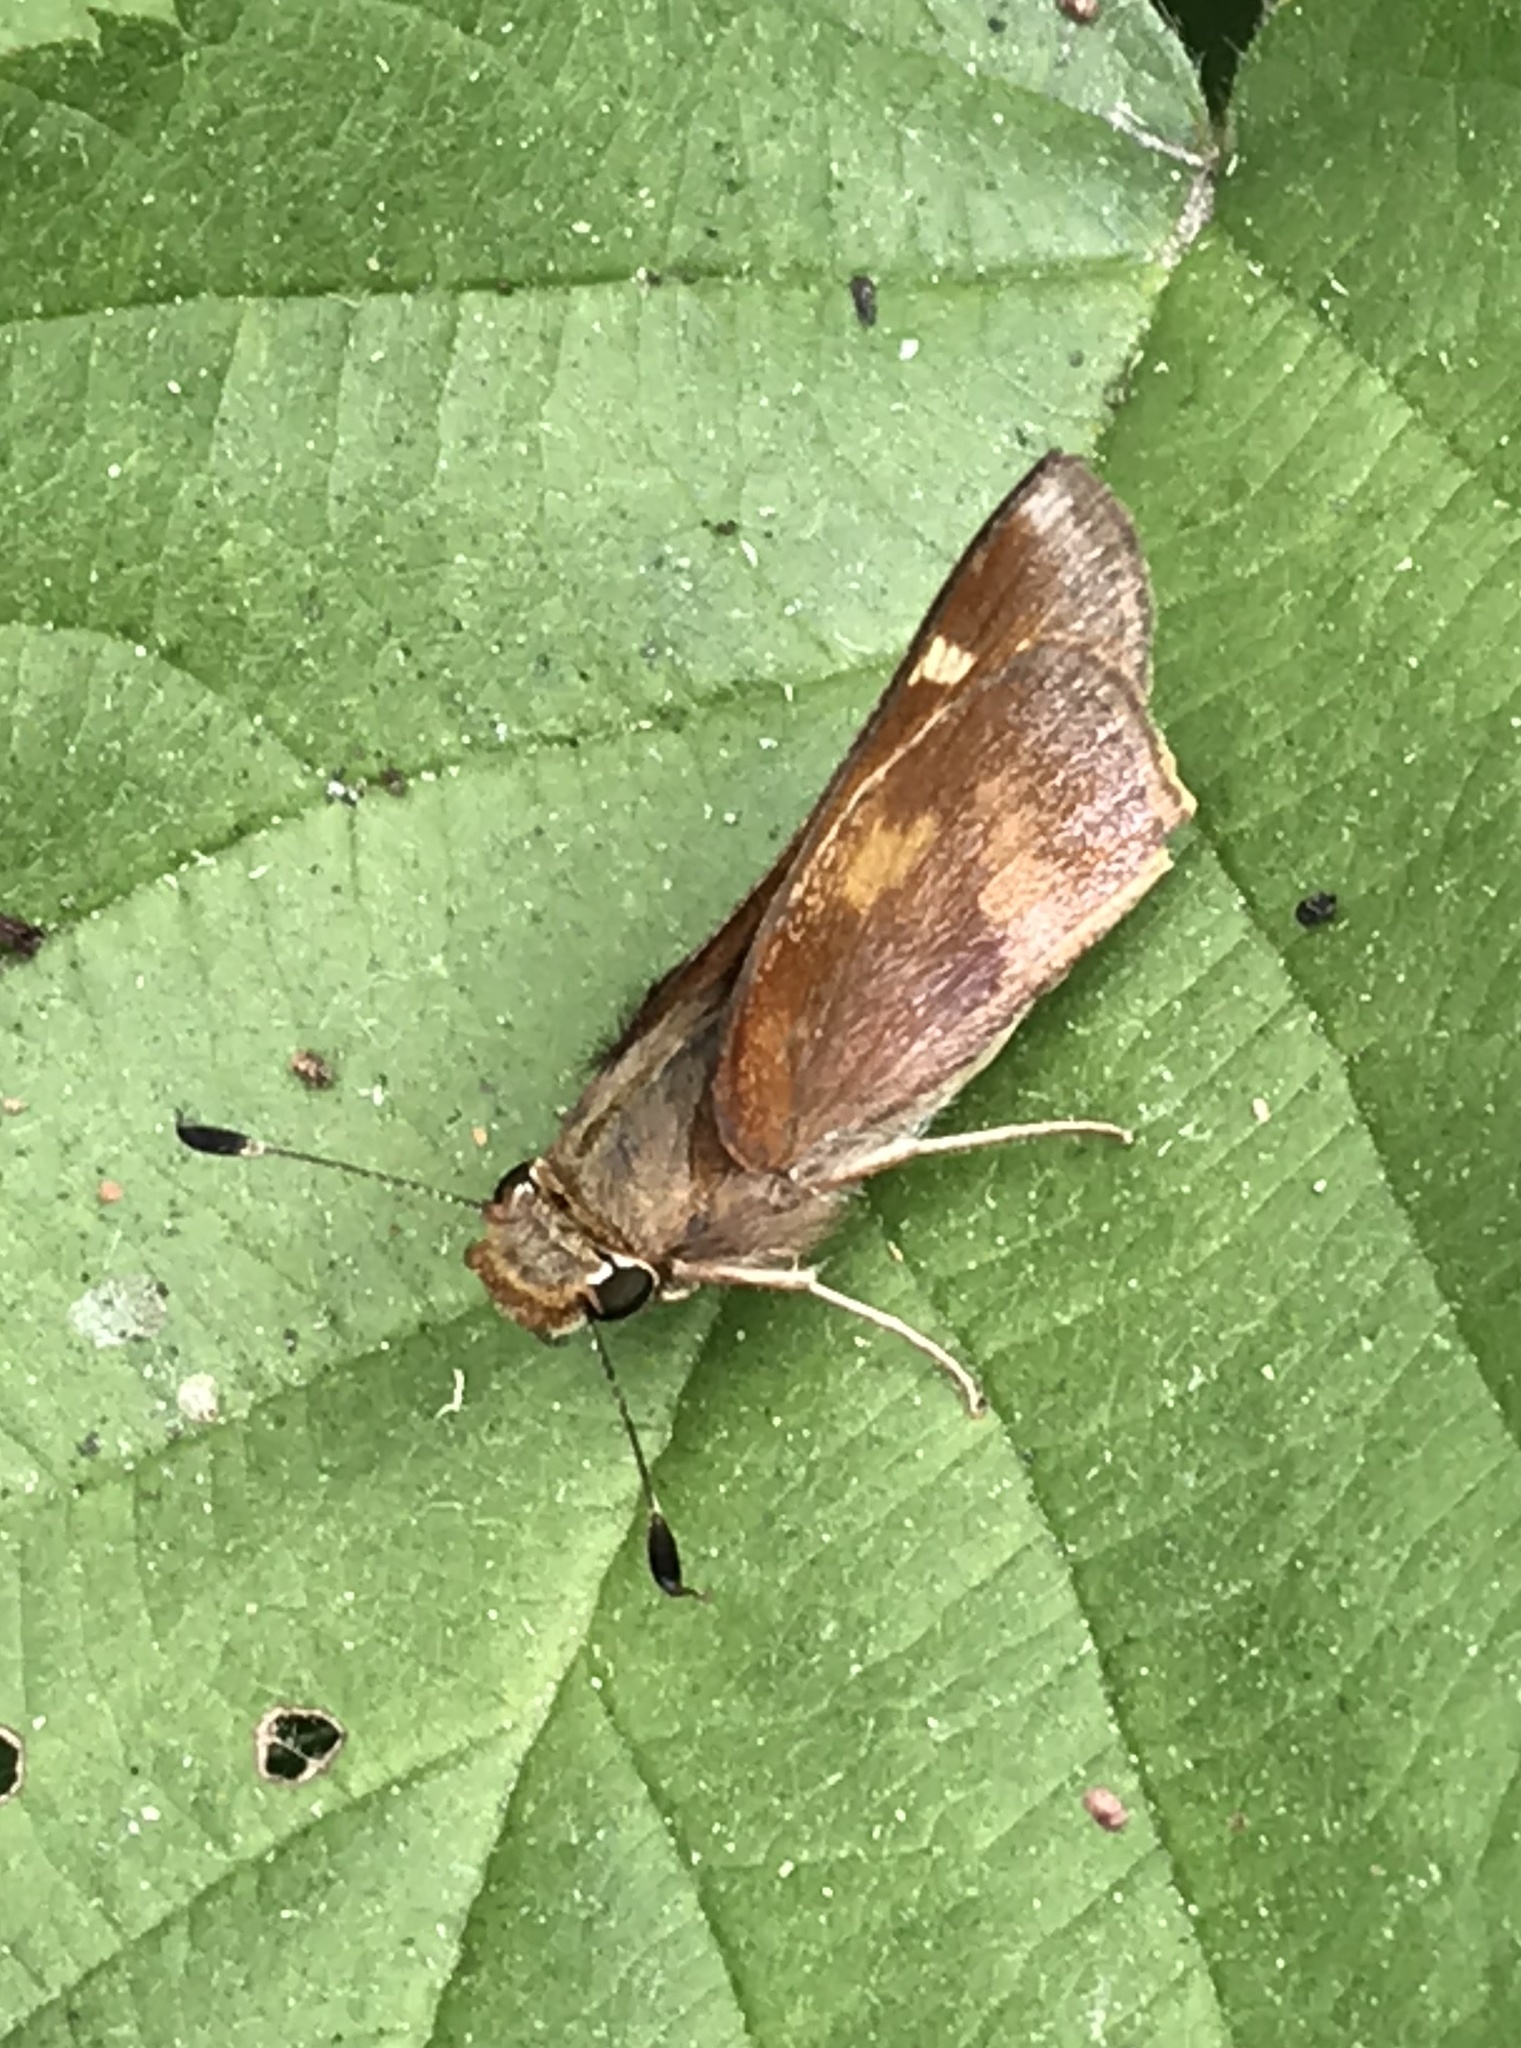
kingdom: Animalia
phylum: Arthropoda
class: Insecta
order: Lepidoptera
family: Hesperiidae
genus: Lon
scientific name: Lon melane
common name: Umber skipper
